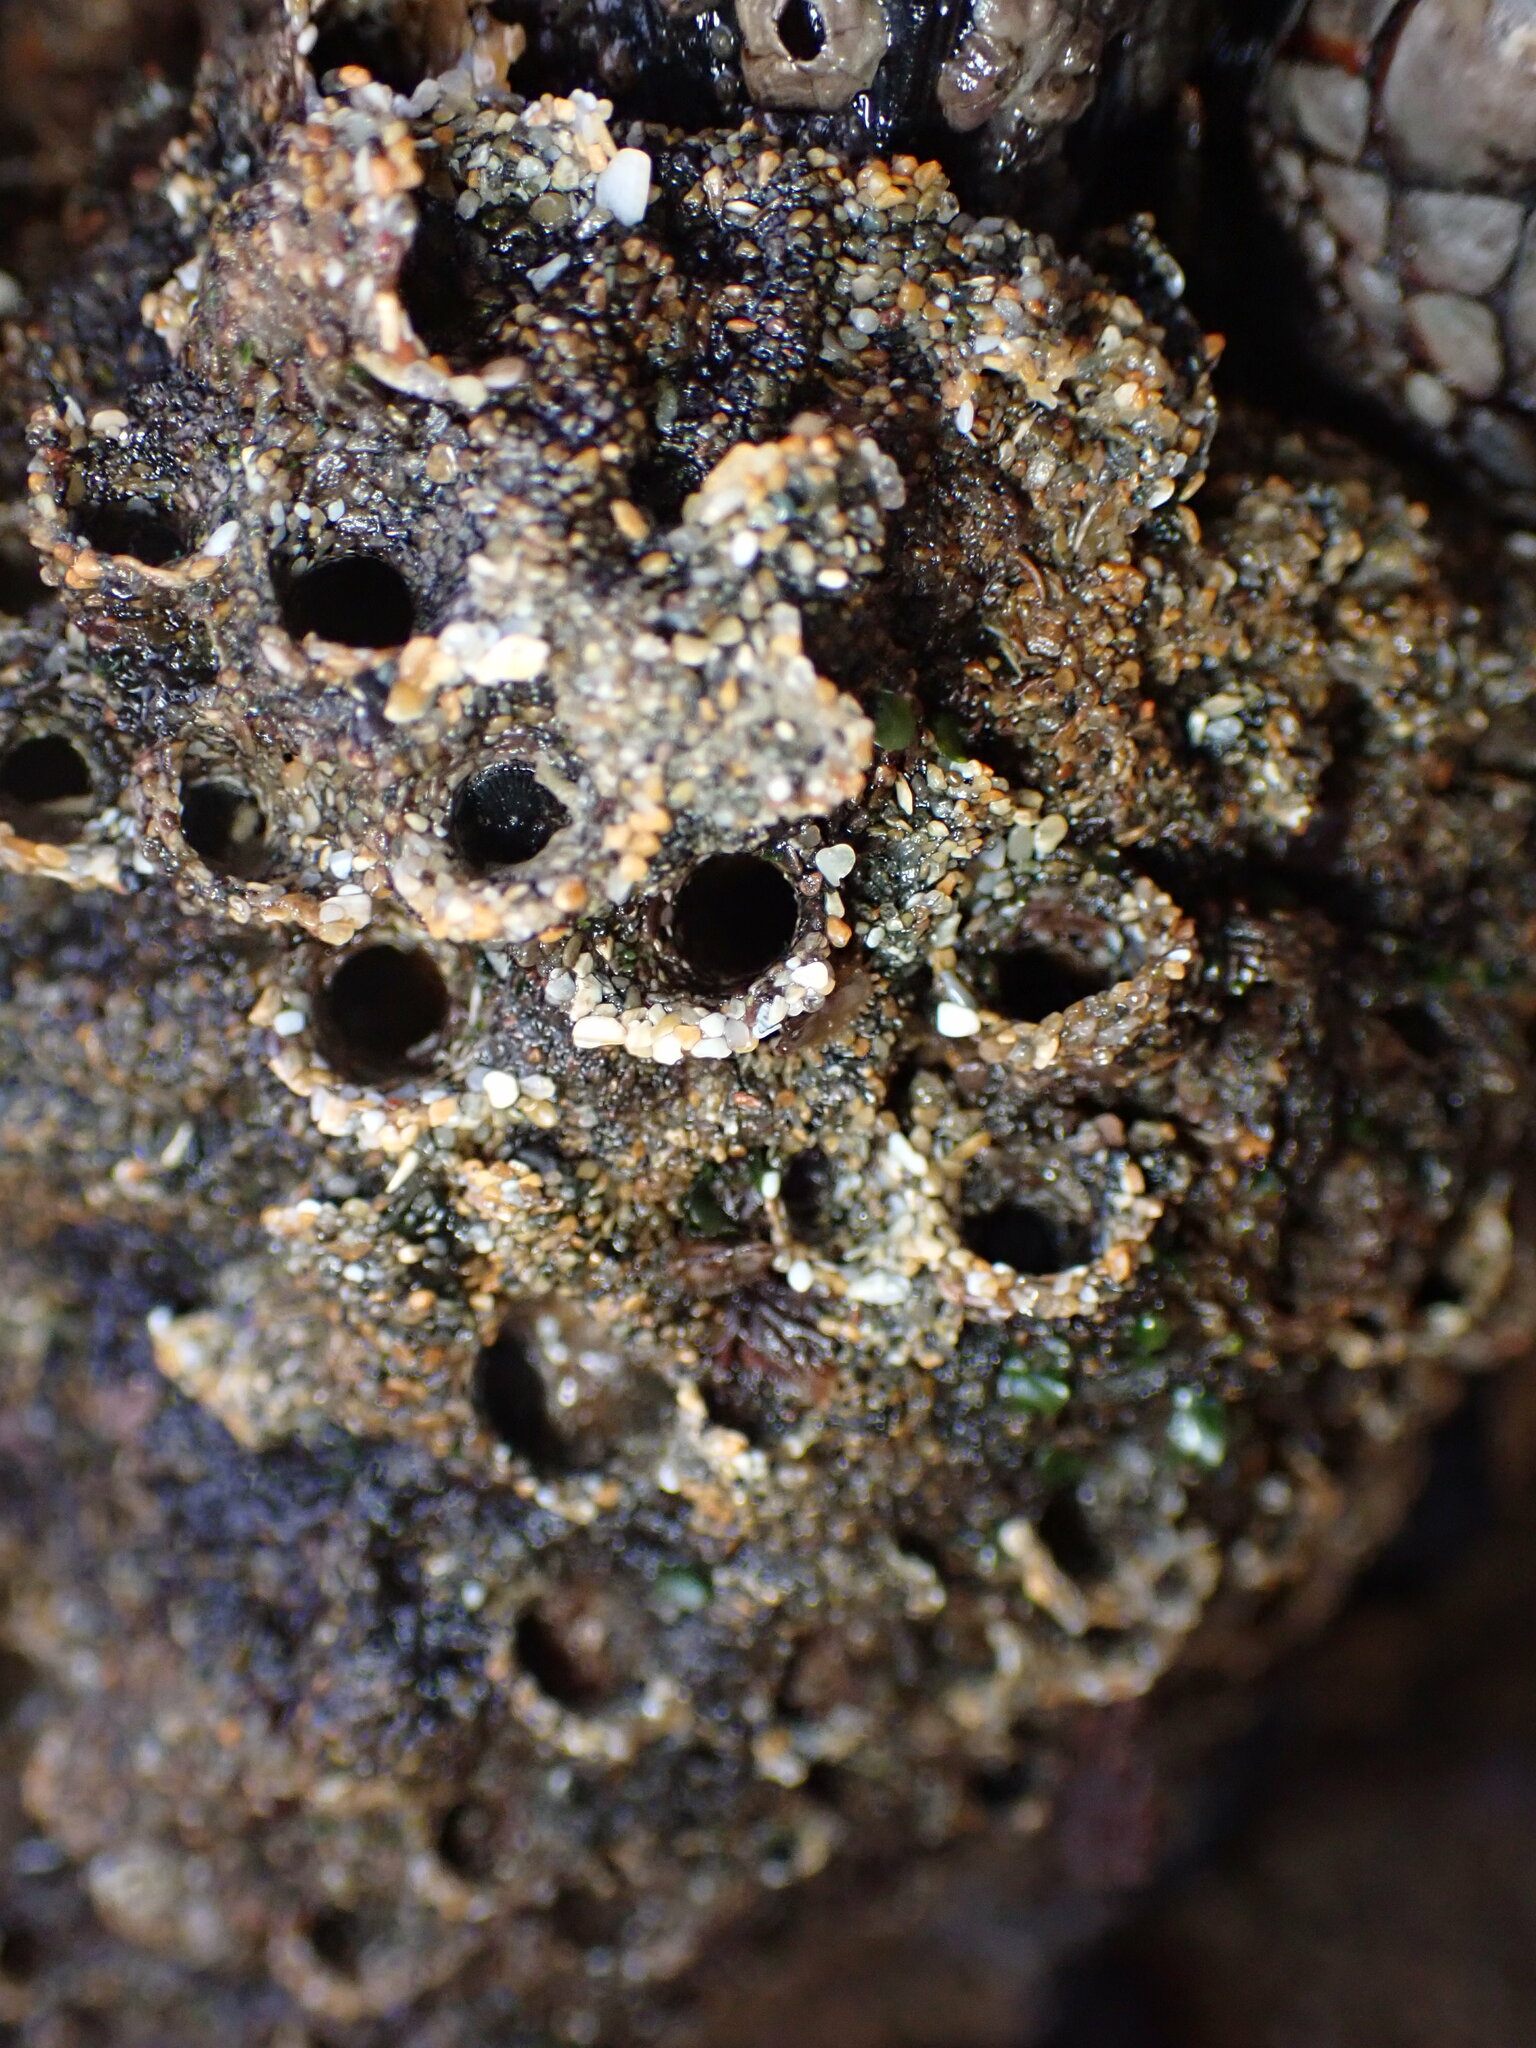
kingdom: Animalia
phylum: Annelida
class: Polychaeta
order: Sabellida
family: Sabellariidae
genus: Phragmatopoma
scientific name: Phragmatopoma californica
